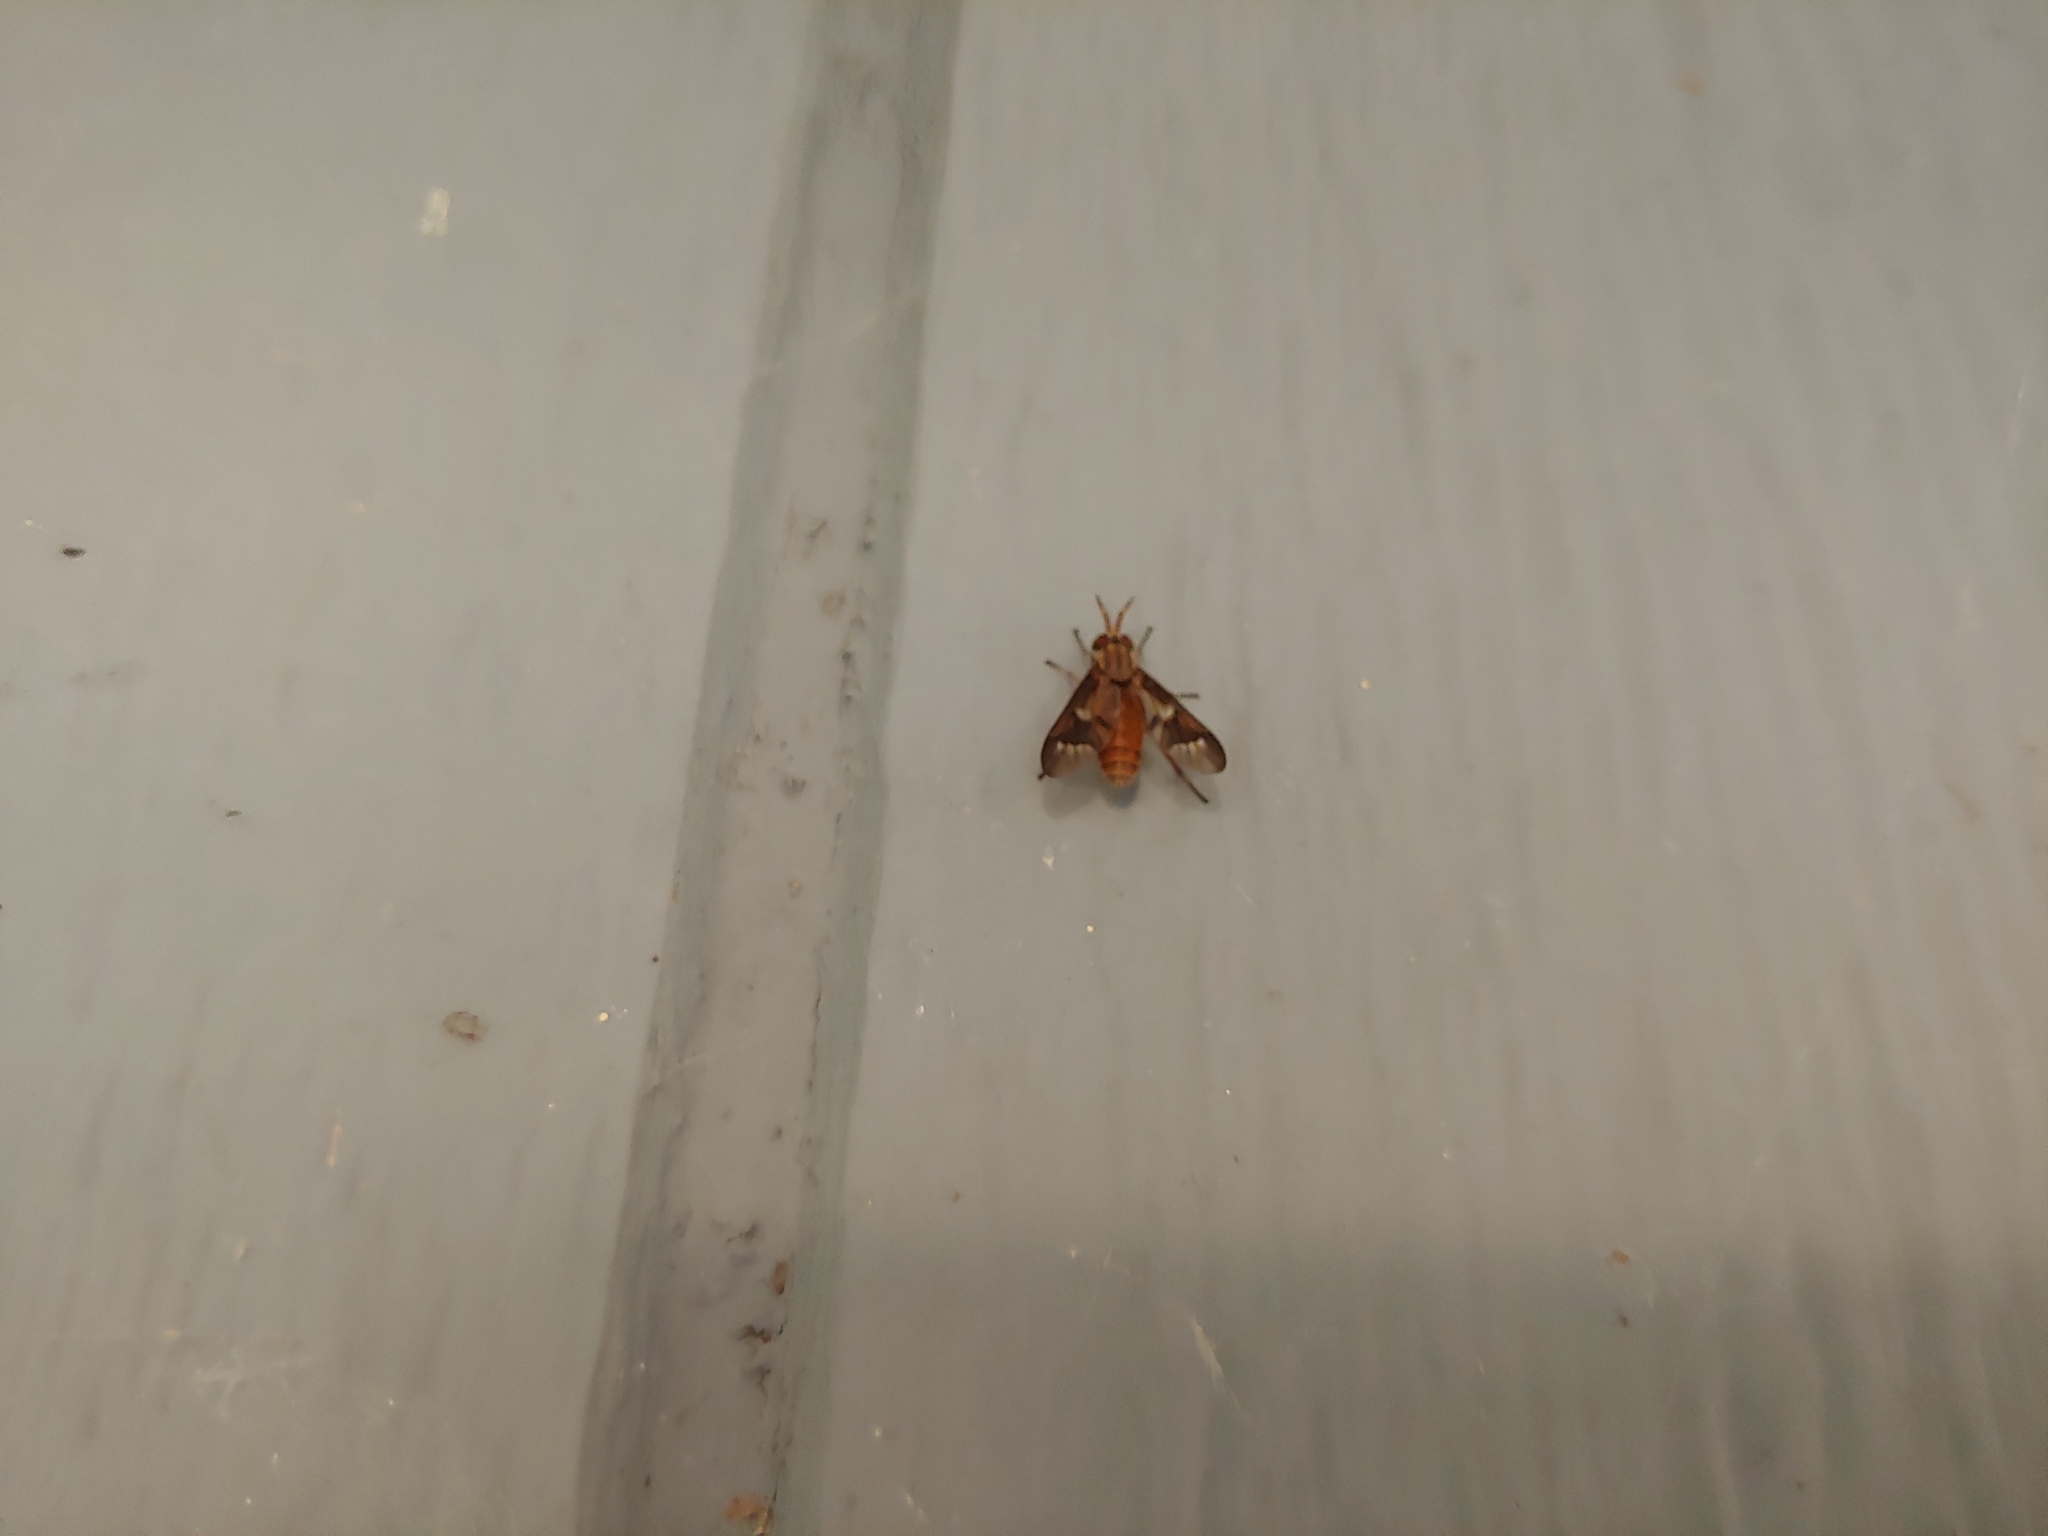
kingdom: Animalia
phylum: Arthropoda
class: Insecta
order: Diptera
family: Tabanidae
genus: Chrysops
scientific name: Chrysops brunneus
